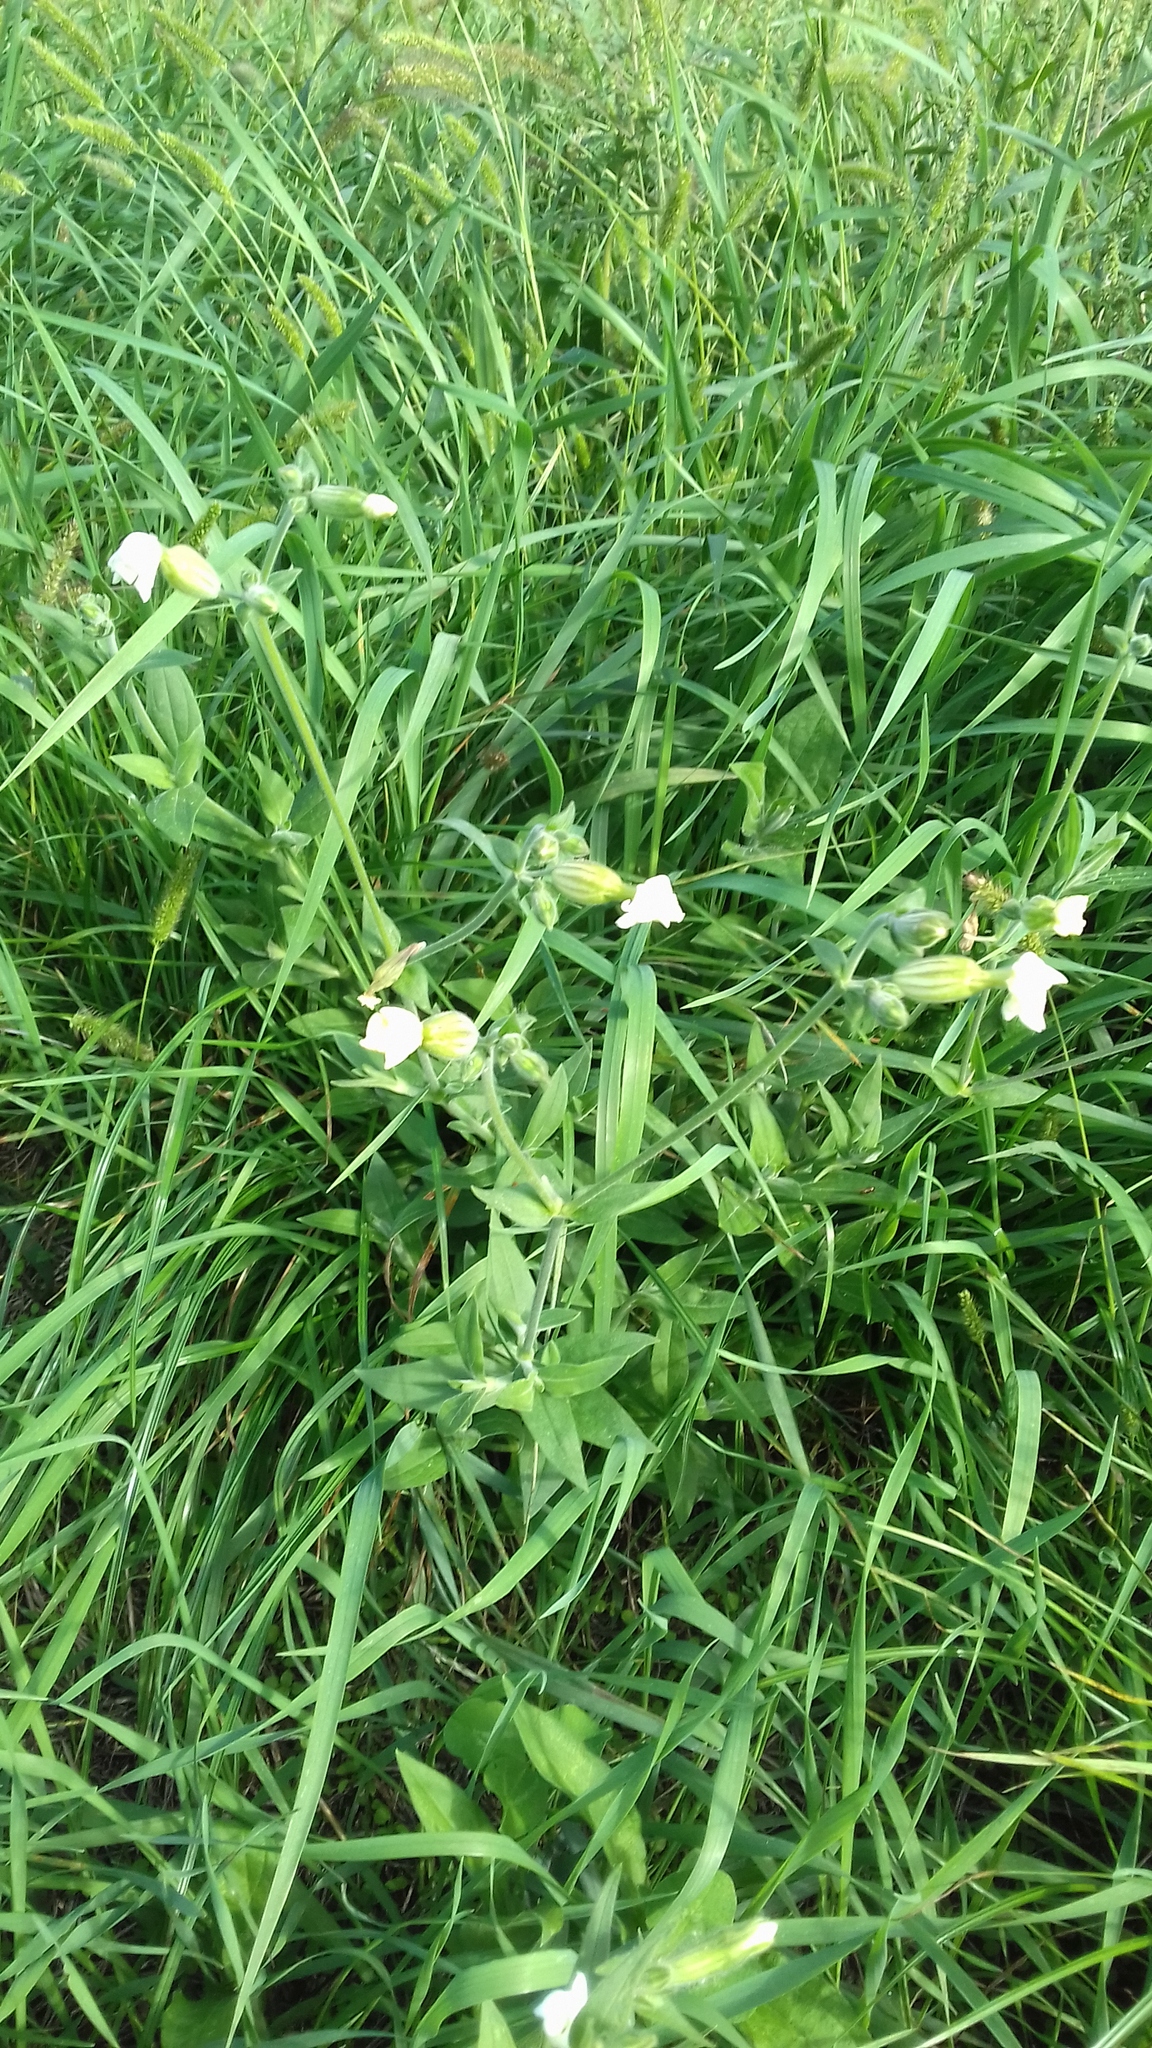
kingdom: Plantae
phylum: Tracheophyta
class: Magnoliopsida
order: Caryophyllales
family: Caryophyllaceae
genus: Silene
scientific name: Silene latifolia
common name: White campion
